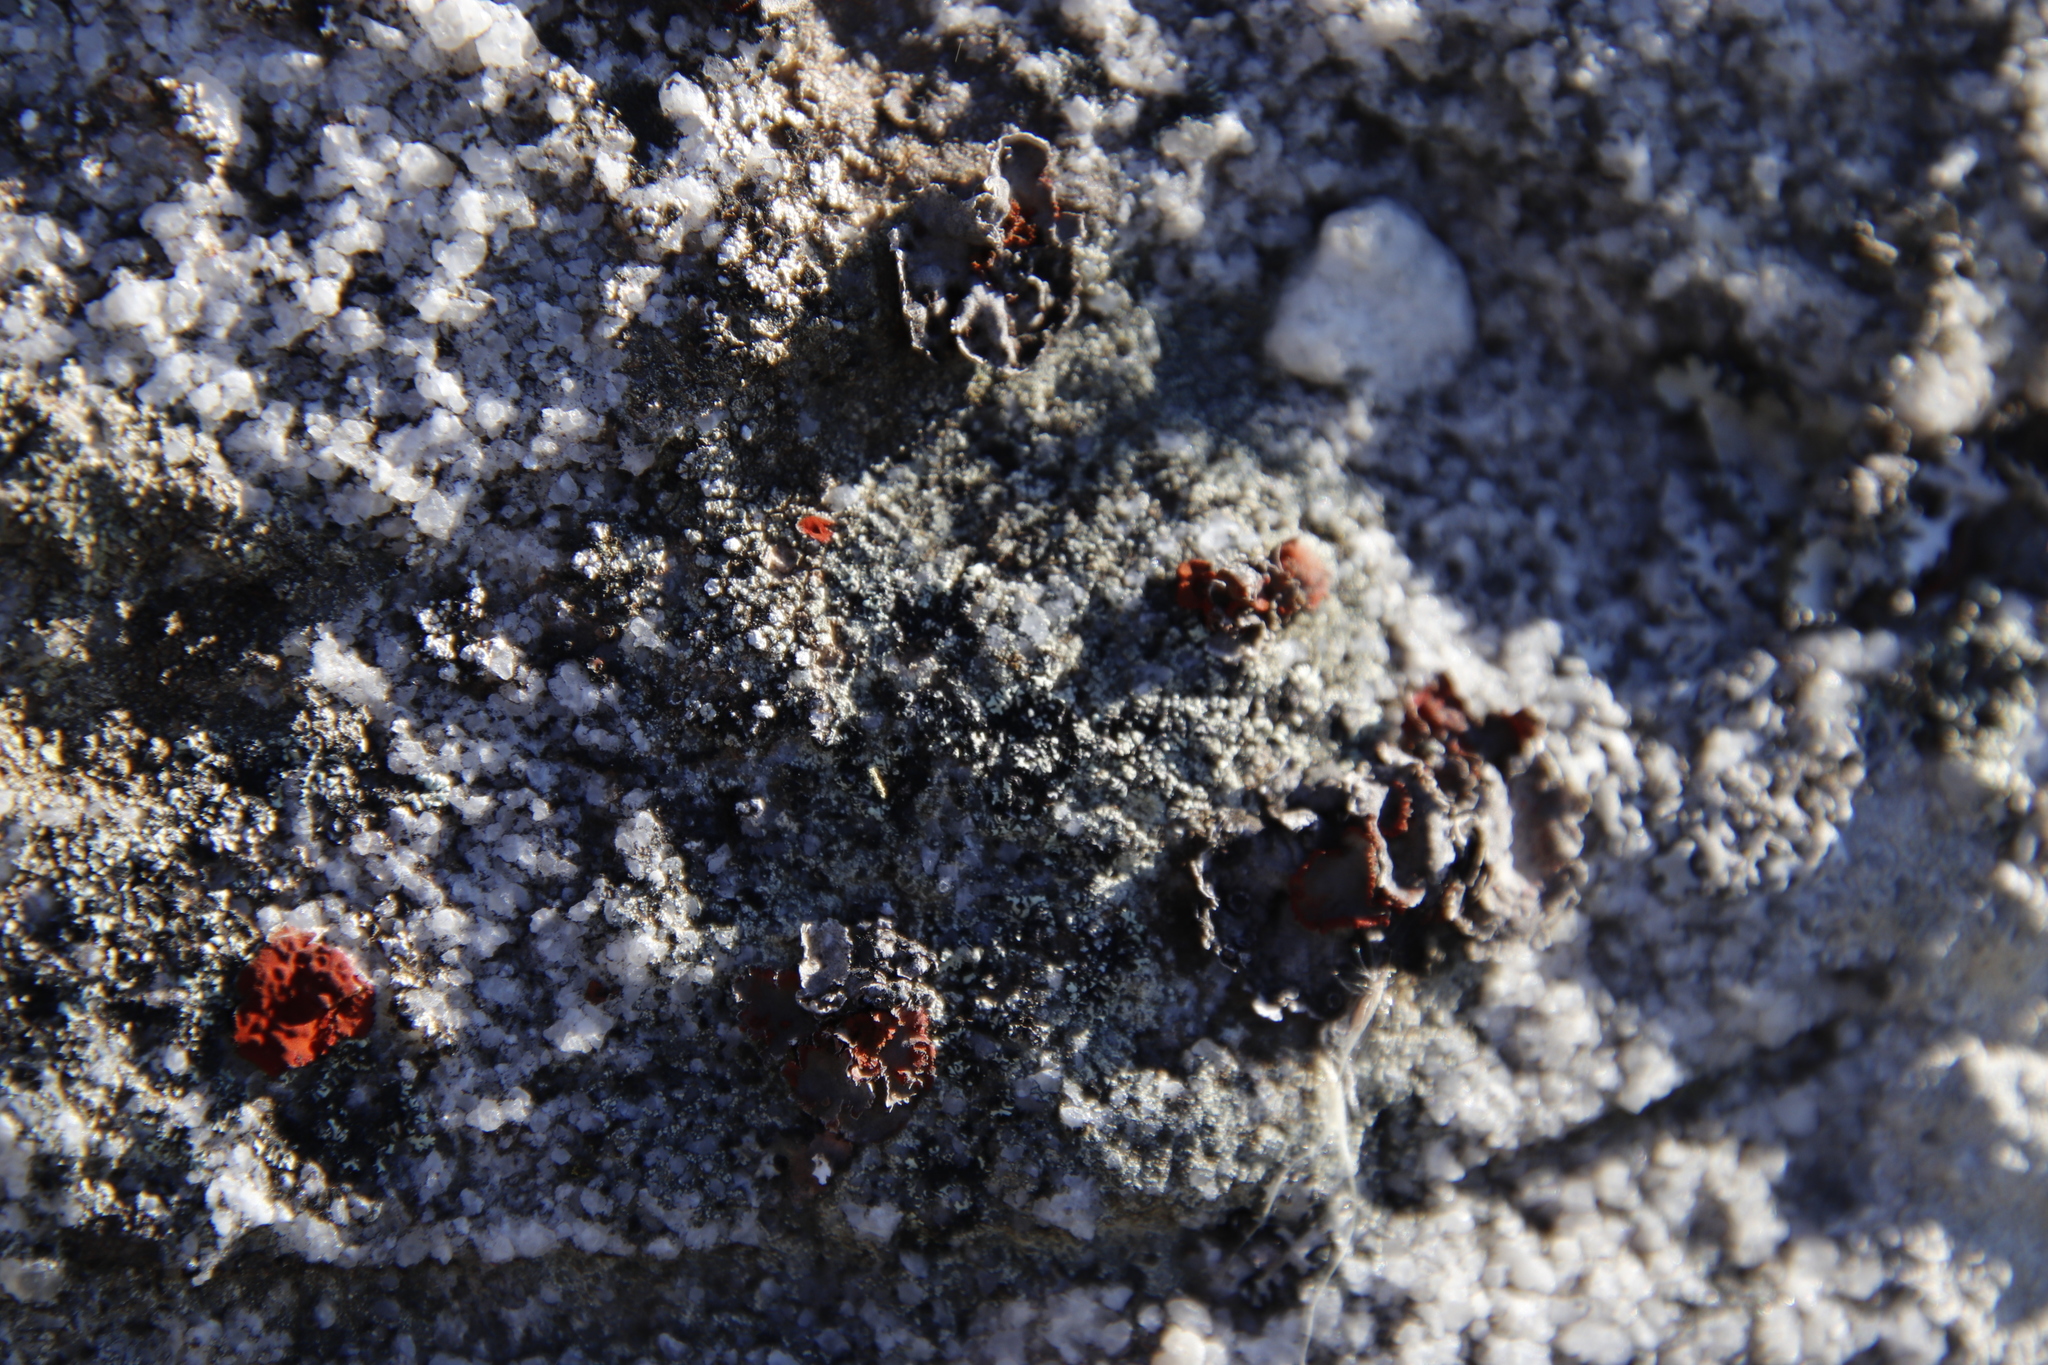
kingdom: Fungi
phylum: Ascomycota
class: Lecanoromycetes
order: Umbilicariales
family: Umbilicariaceae
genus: Lasallia
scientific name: Lasallia rubiginosa
